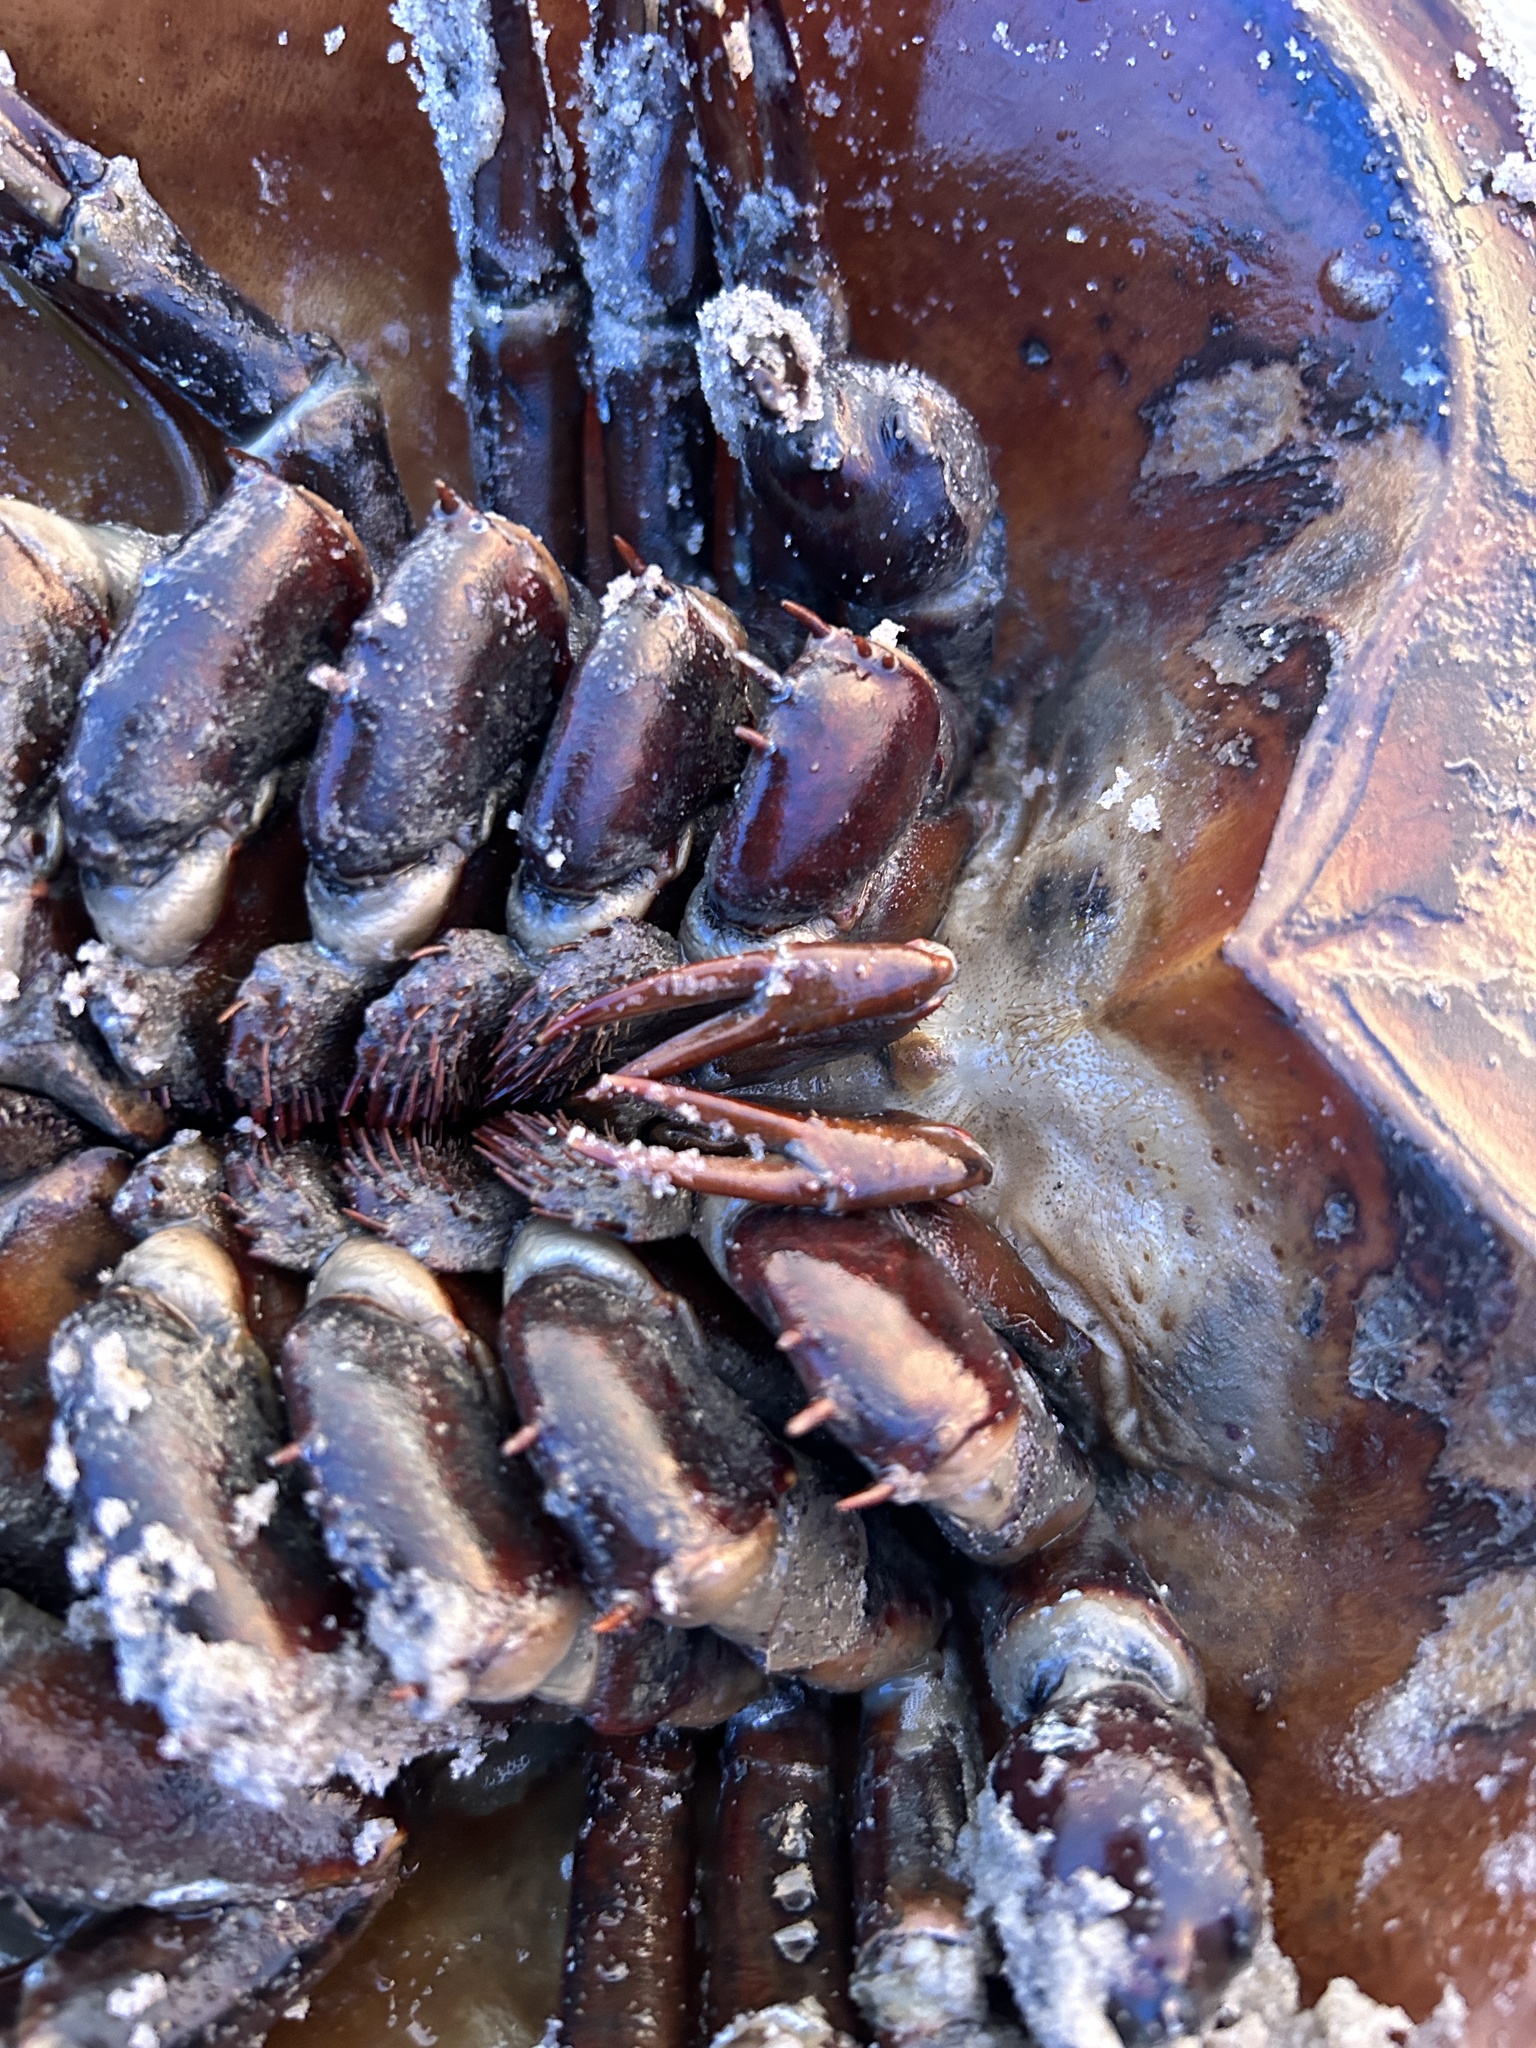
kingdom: Animalia
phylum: Arthropoda
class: Merostomata
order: Xiphosurida
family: Limulidae
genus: Limulus
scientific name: Limulus polyphemus
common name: Horseshoe crab
